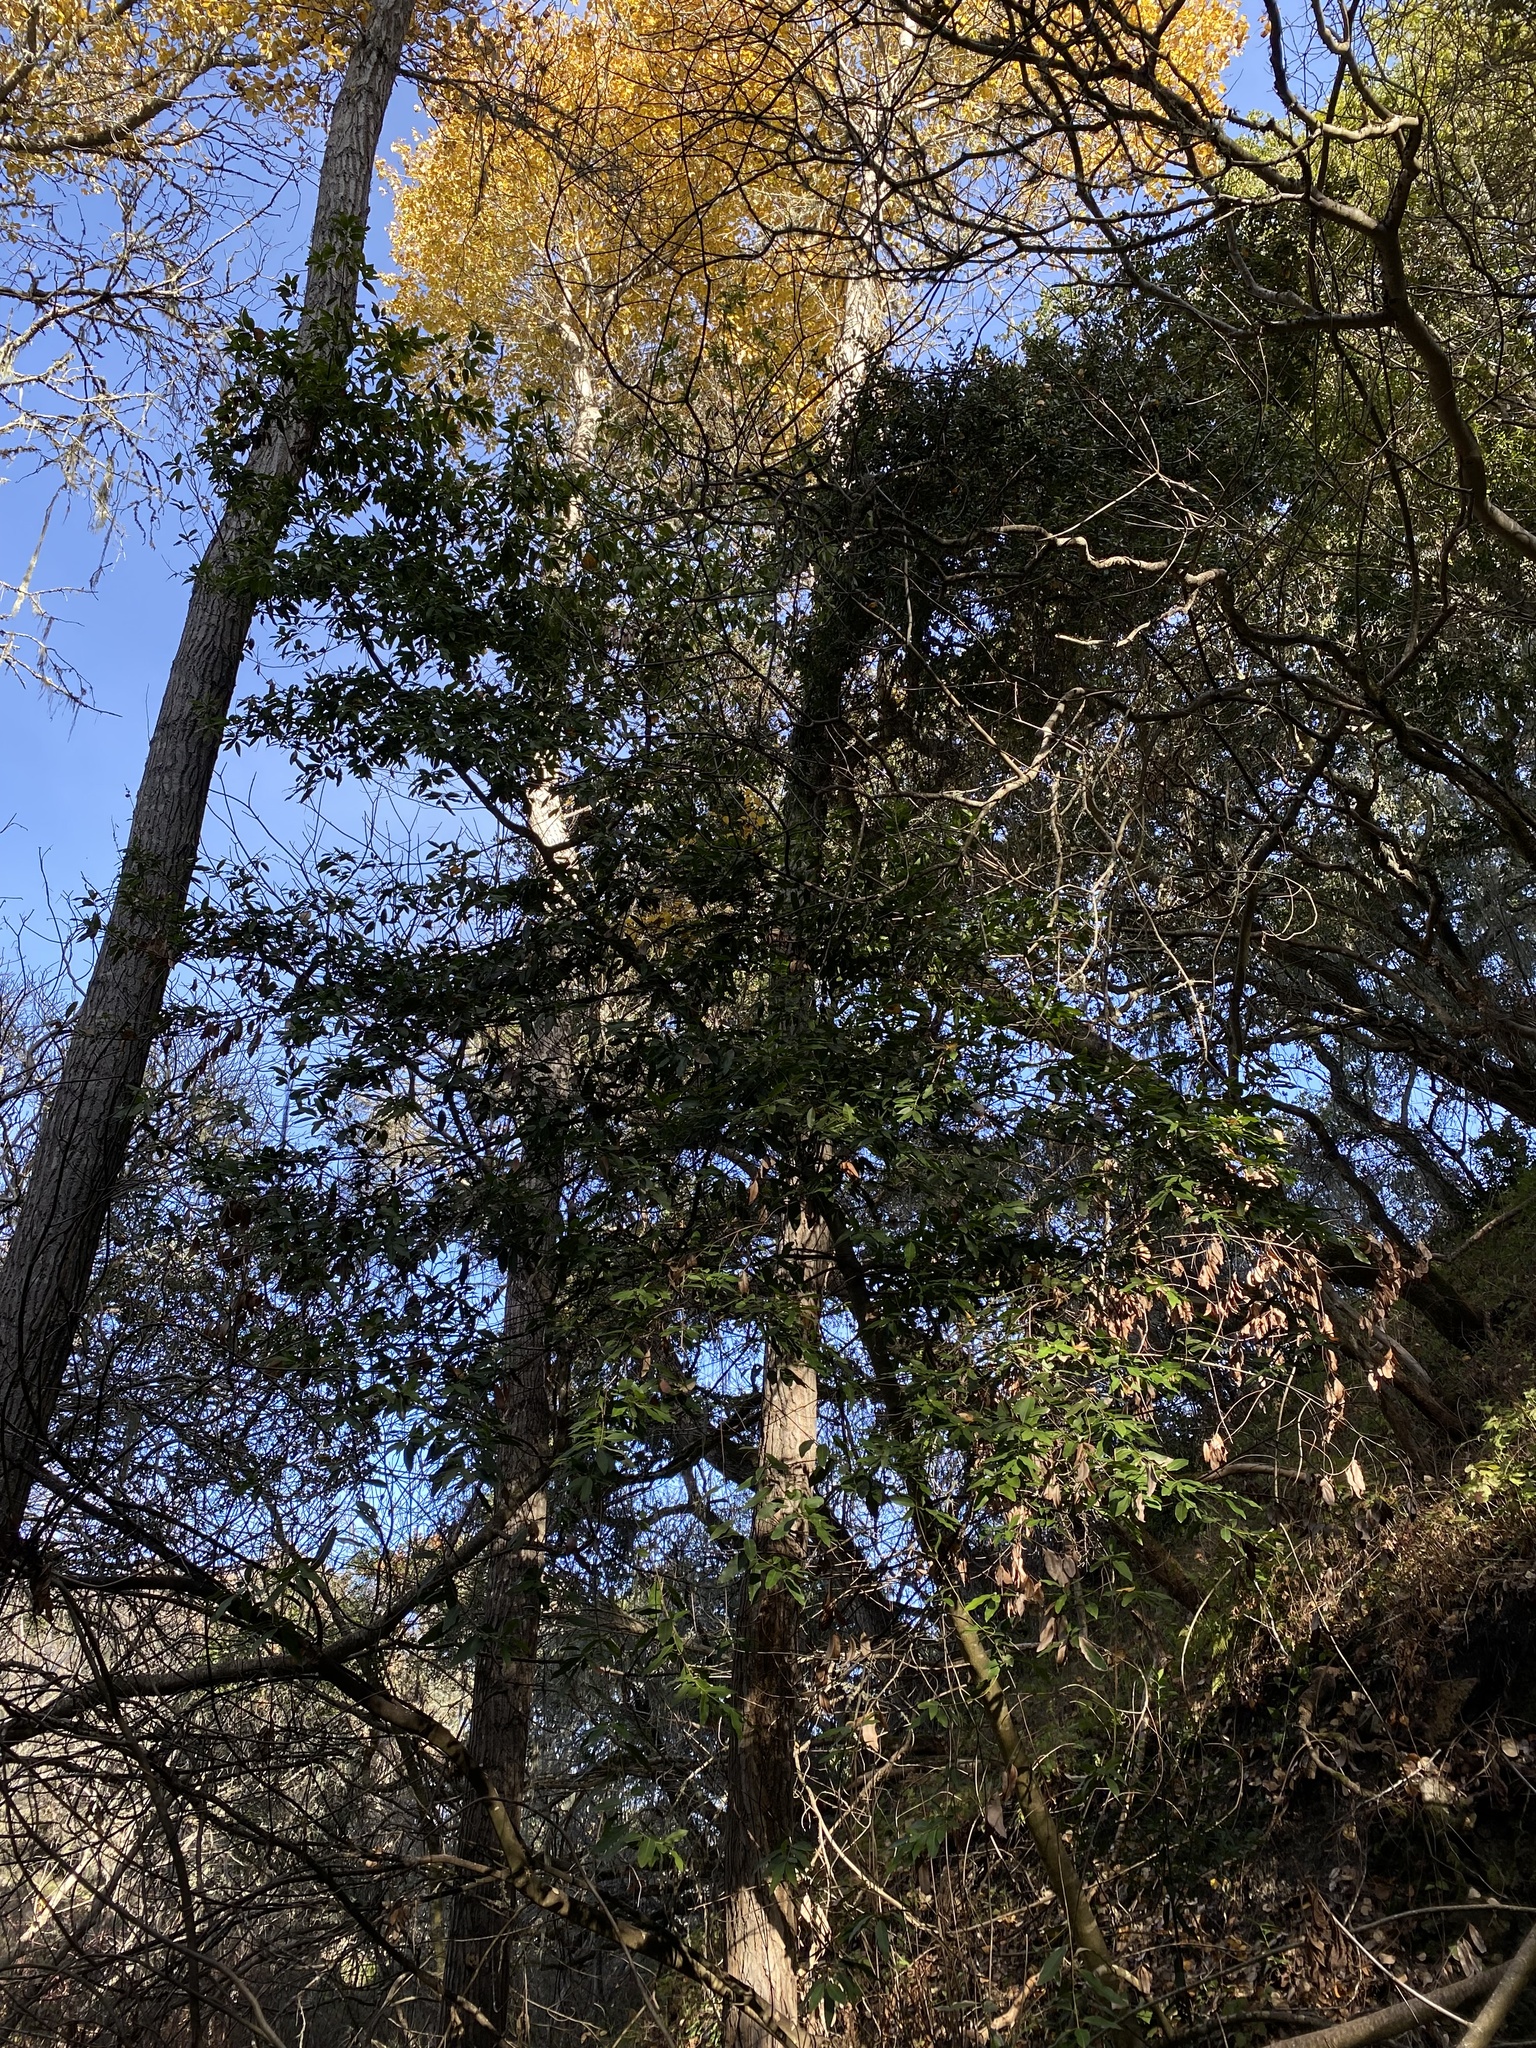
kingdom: Plantae
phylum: Tracheophyta
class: Magnoliopsida
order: Laurales
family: Lauraceae
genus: Umbellularia
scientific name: Umbellularia californica
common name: California bay
